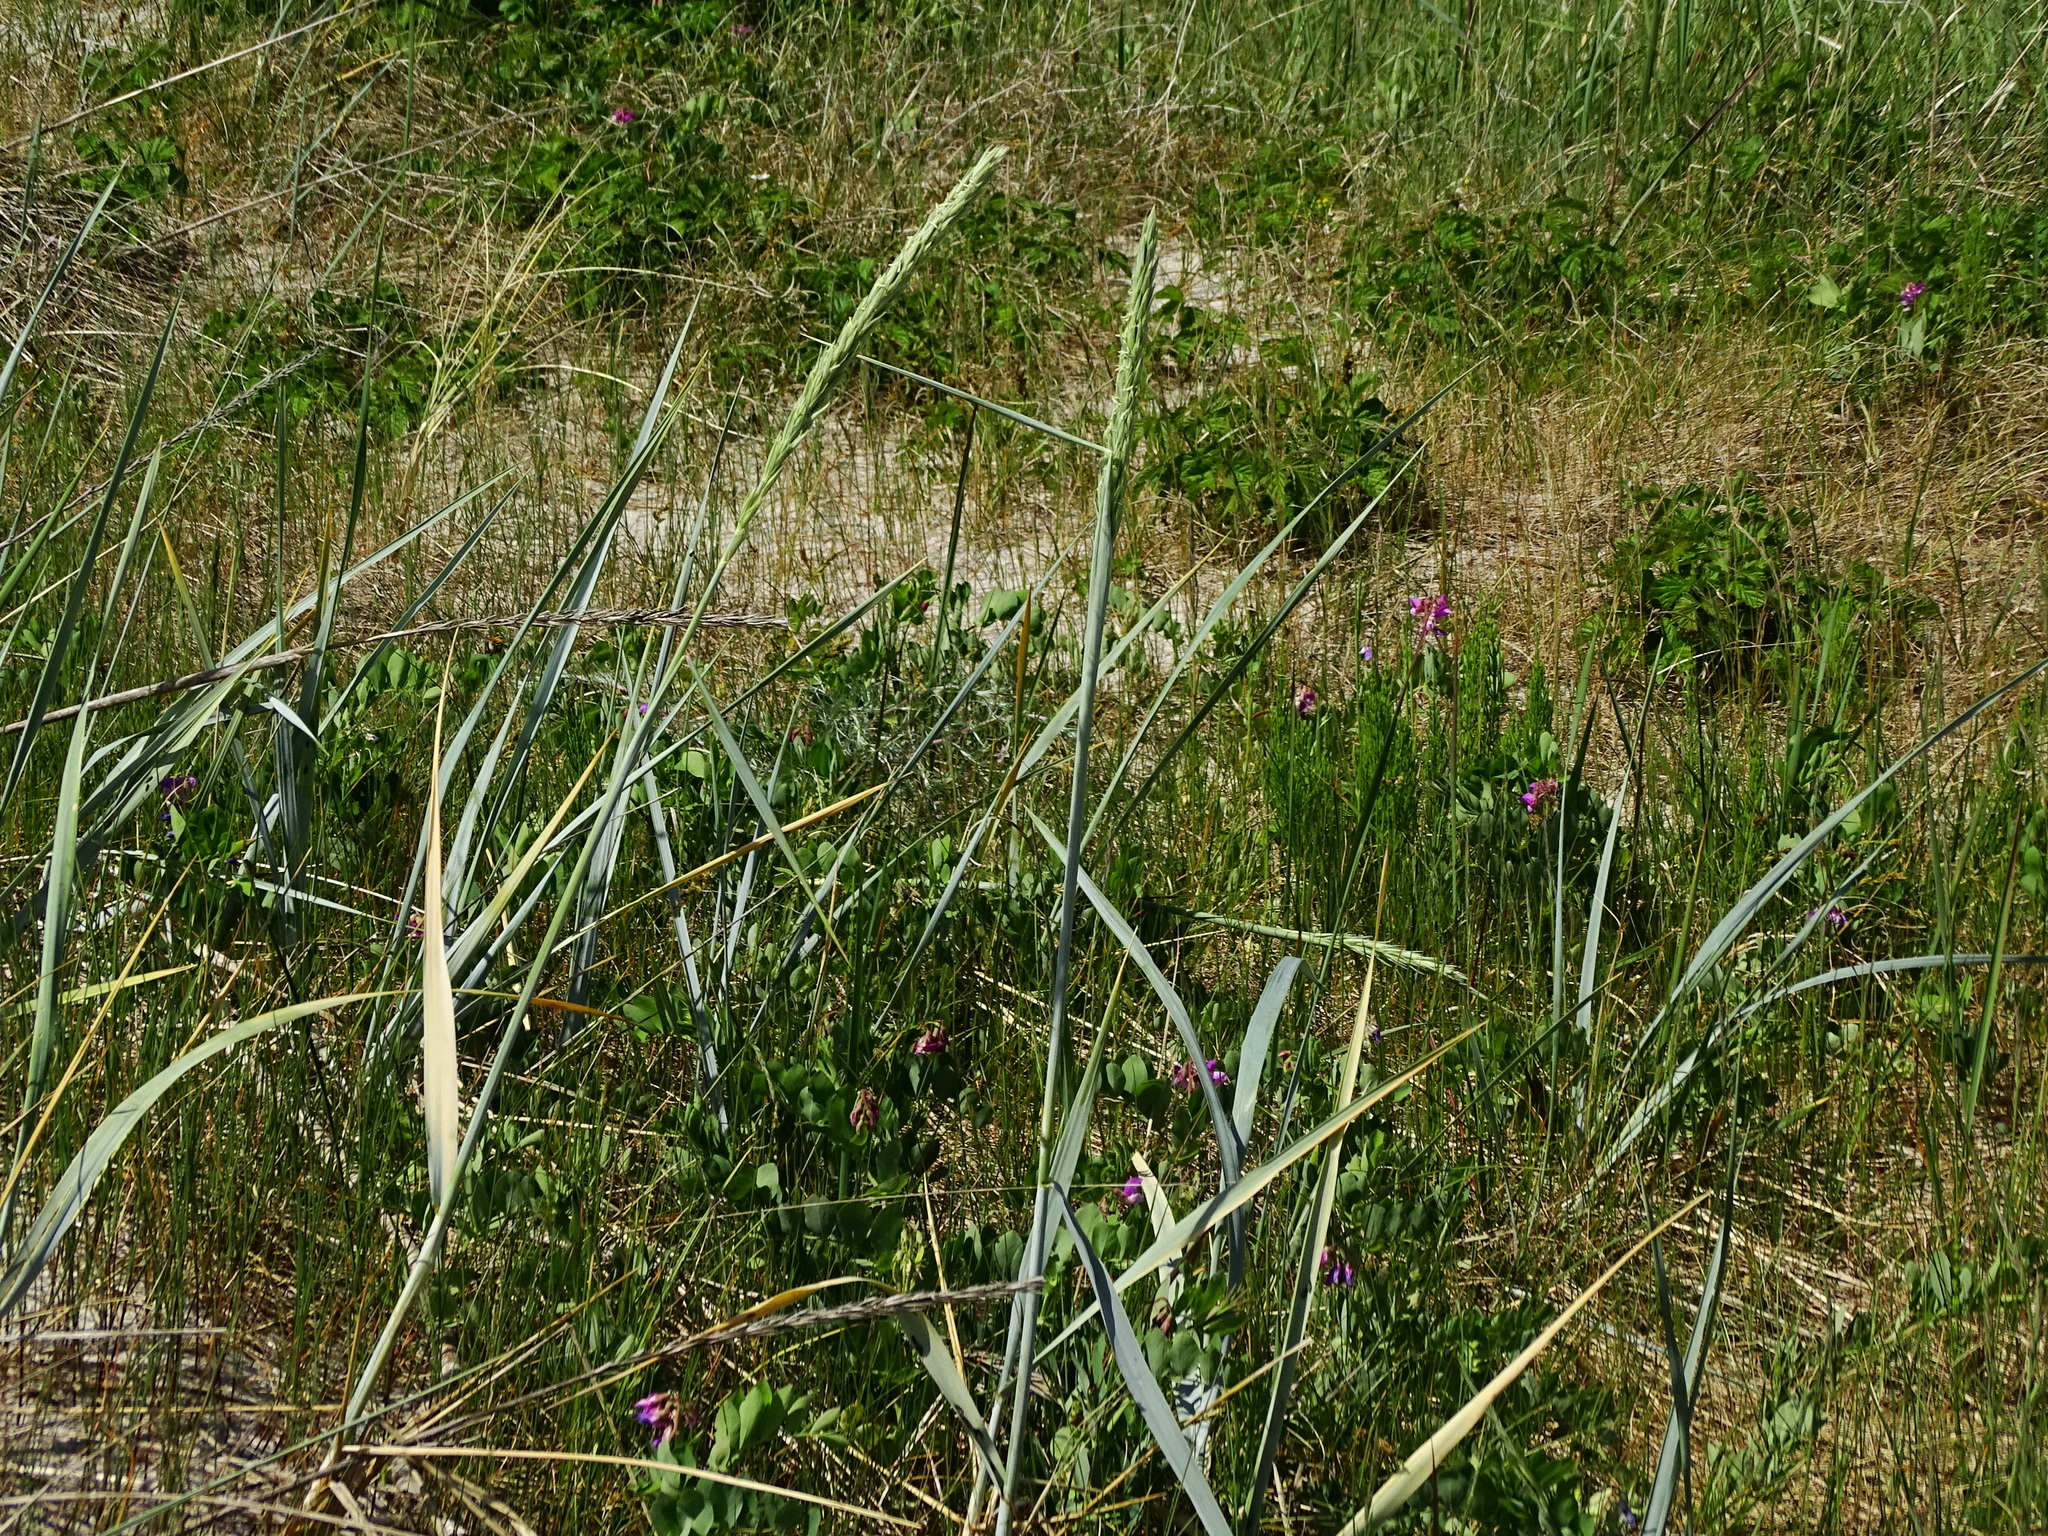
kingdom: Plantae
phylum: Tracheophyta
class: Liliopsida
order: Poales
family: Poaceae
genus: Leymus
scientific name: Leymus arenarius
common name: Lyme-grass
